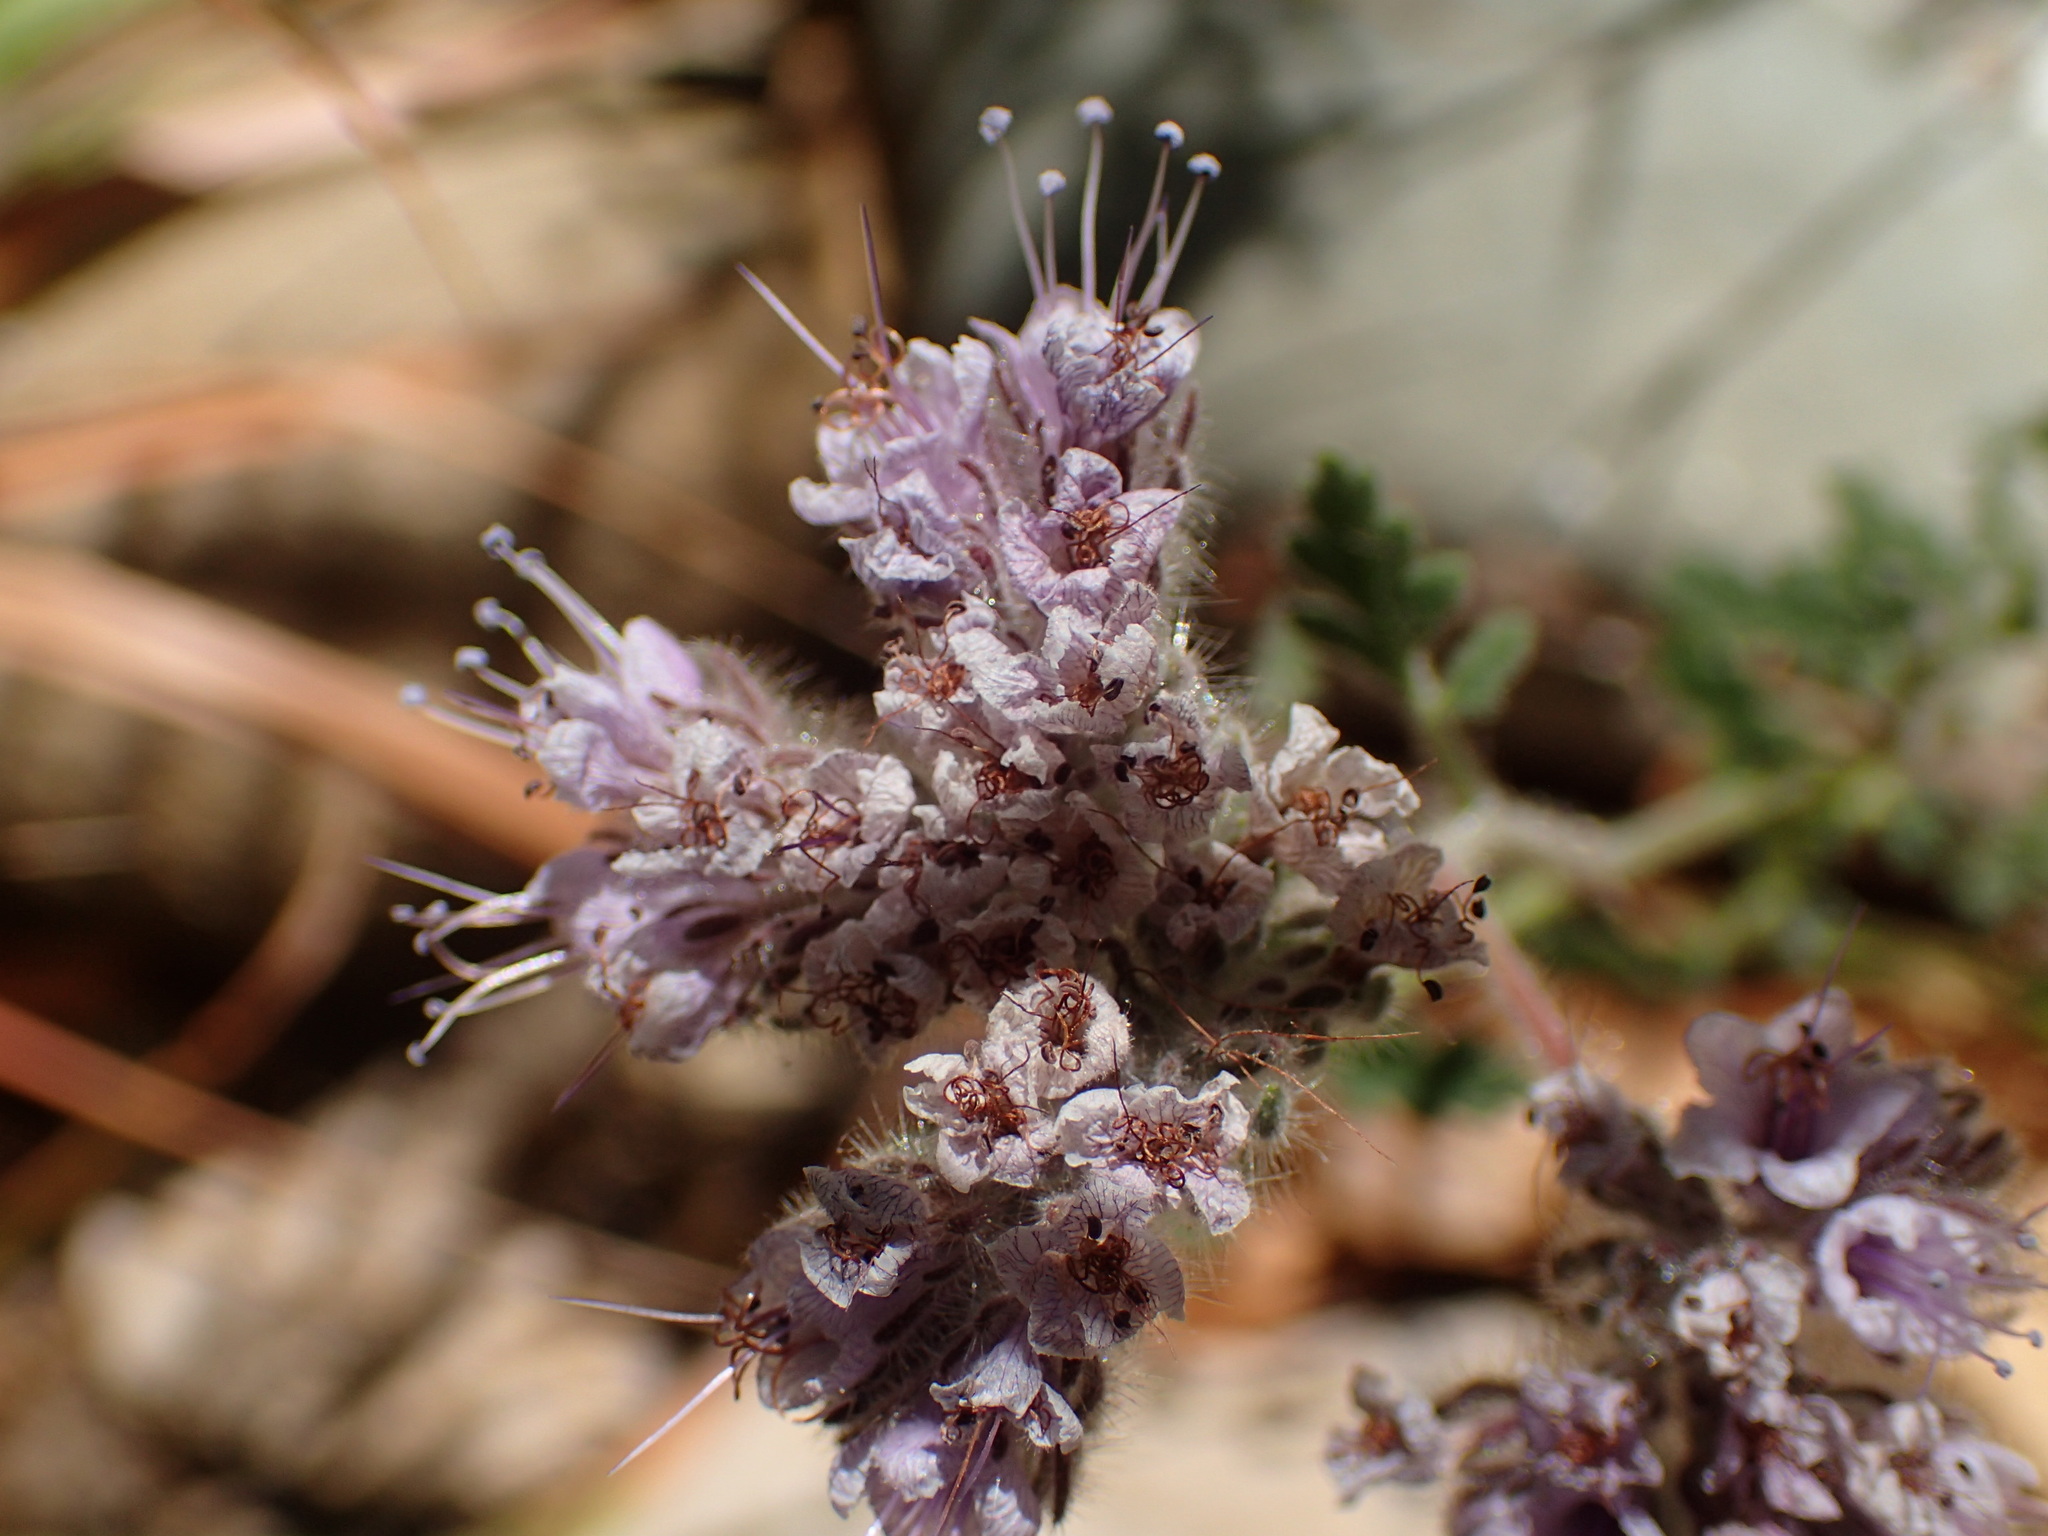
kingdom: Plantae
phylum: Tracheophyta
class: Magnoliopsida
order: Boraginales
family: Hydrophyllaceae
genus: Phacelia
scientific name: Phacelia hubbyi
